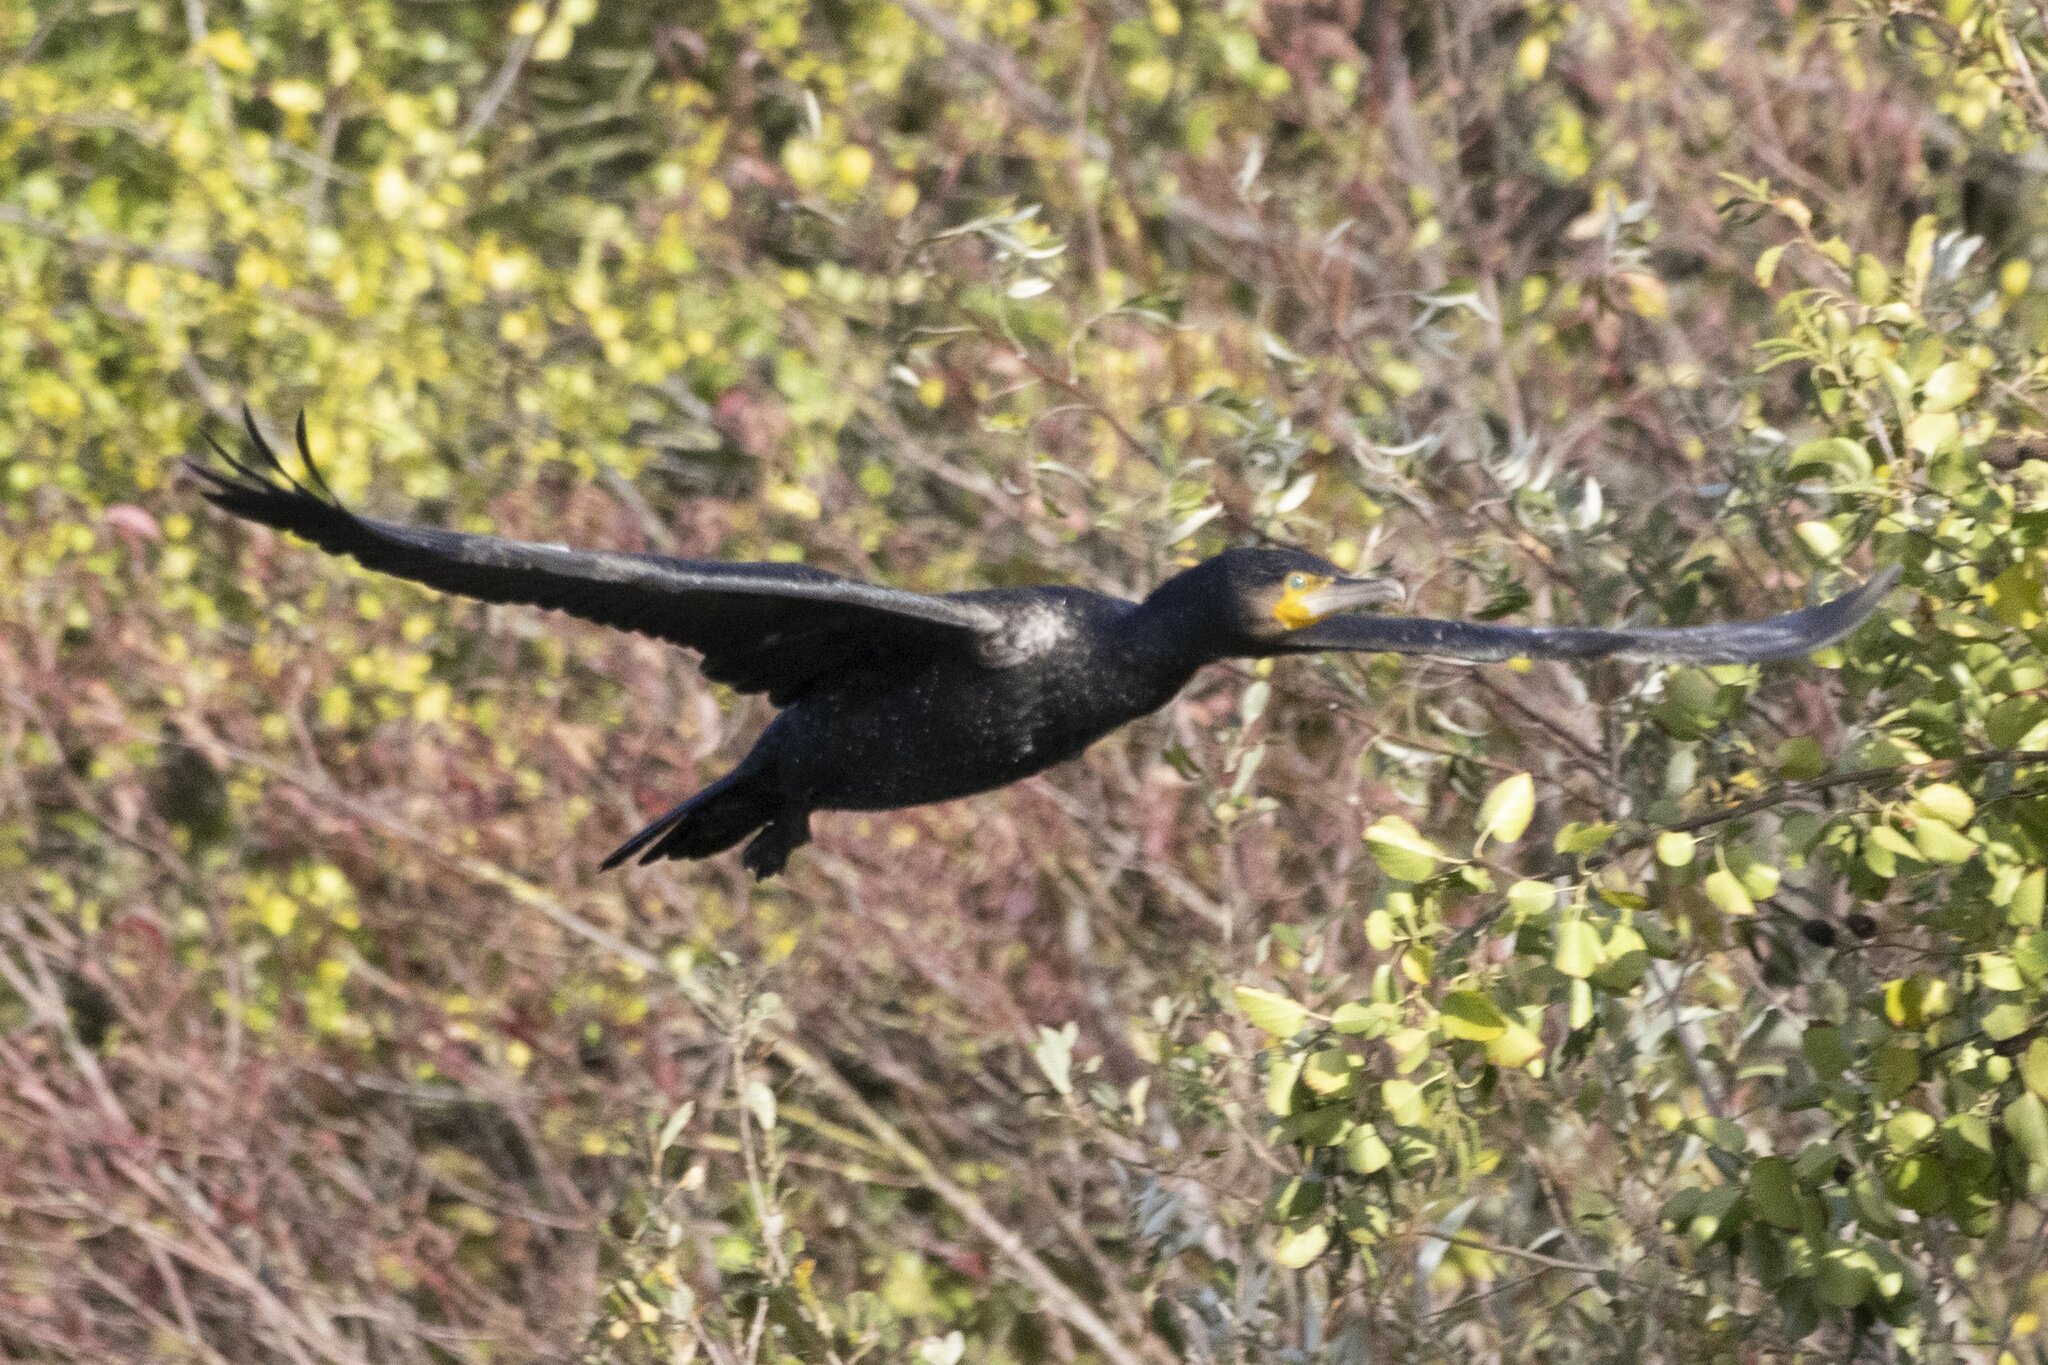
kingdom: Animalia
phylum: Chordata
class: Aves
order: Suliformes
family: Phalacrocoracidae
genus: Phalacrocorax
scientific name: Phalacrocorax carbo
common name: Great cormorant
